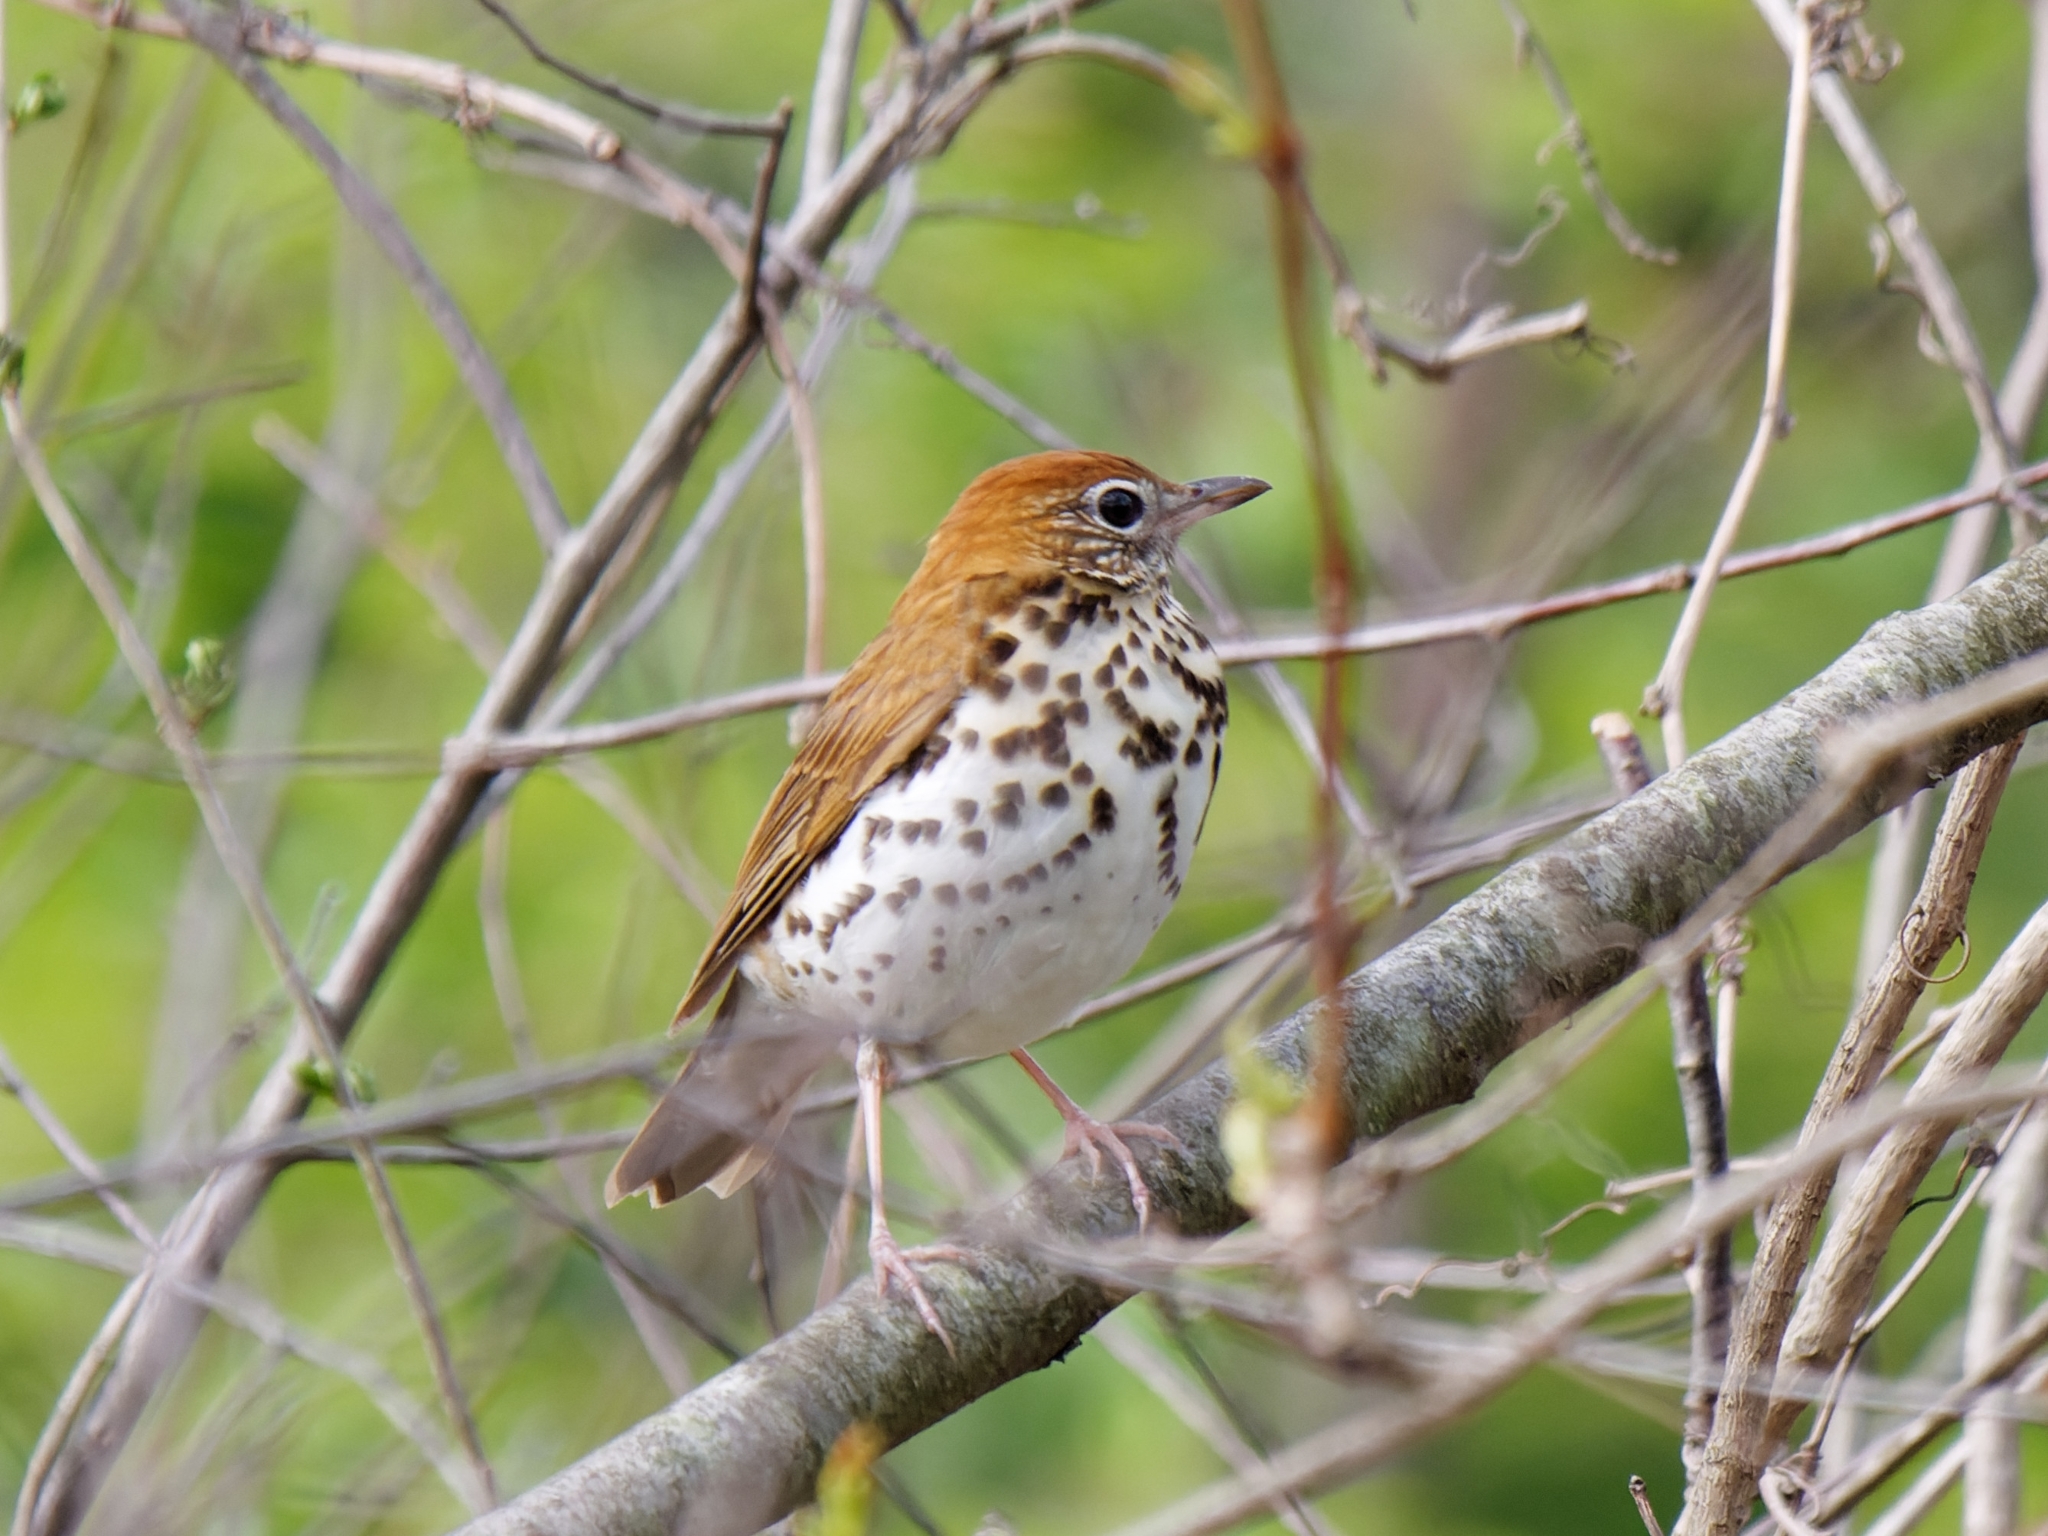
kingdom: Animalia
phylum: Chordata
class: Aves
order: Passeriformes
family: Turdidae
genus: Hylocichla
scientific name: Hylocichla mustelina
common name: Wood thrush
